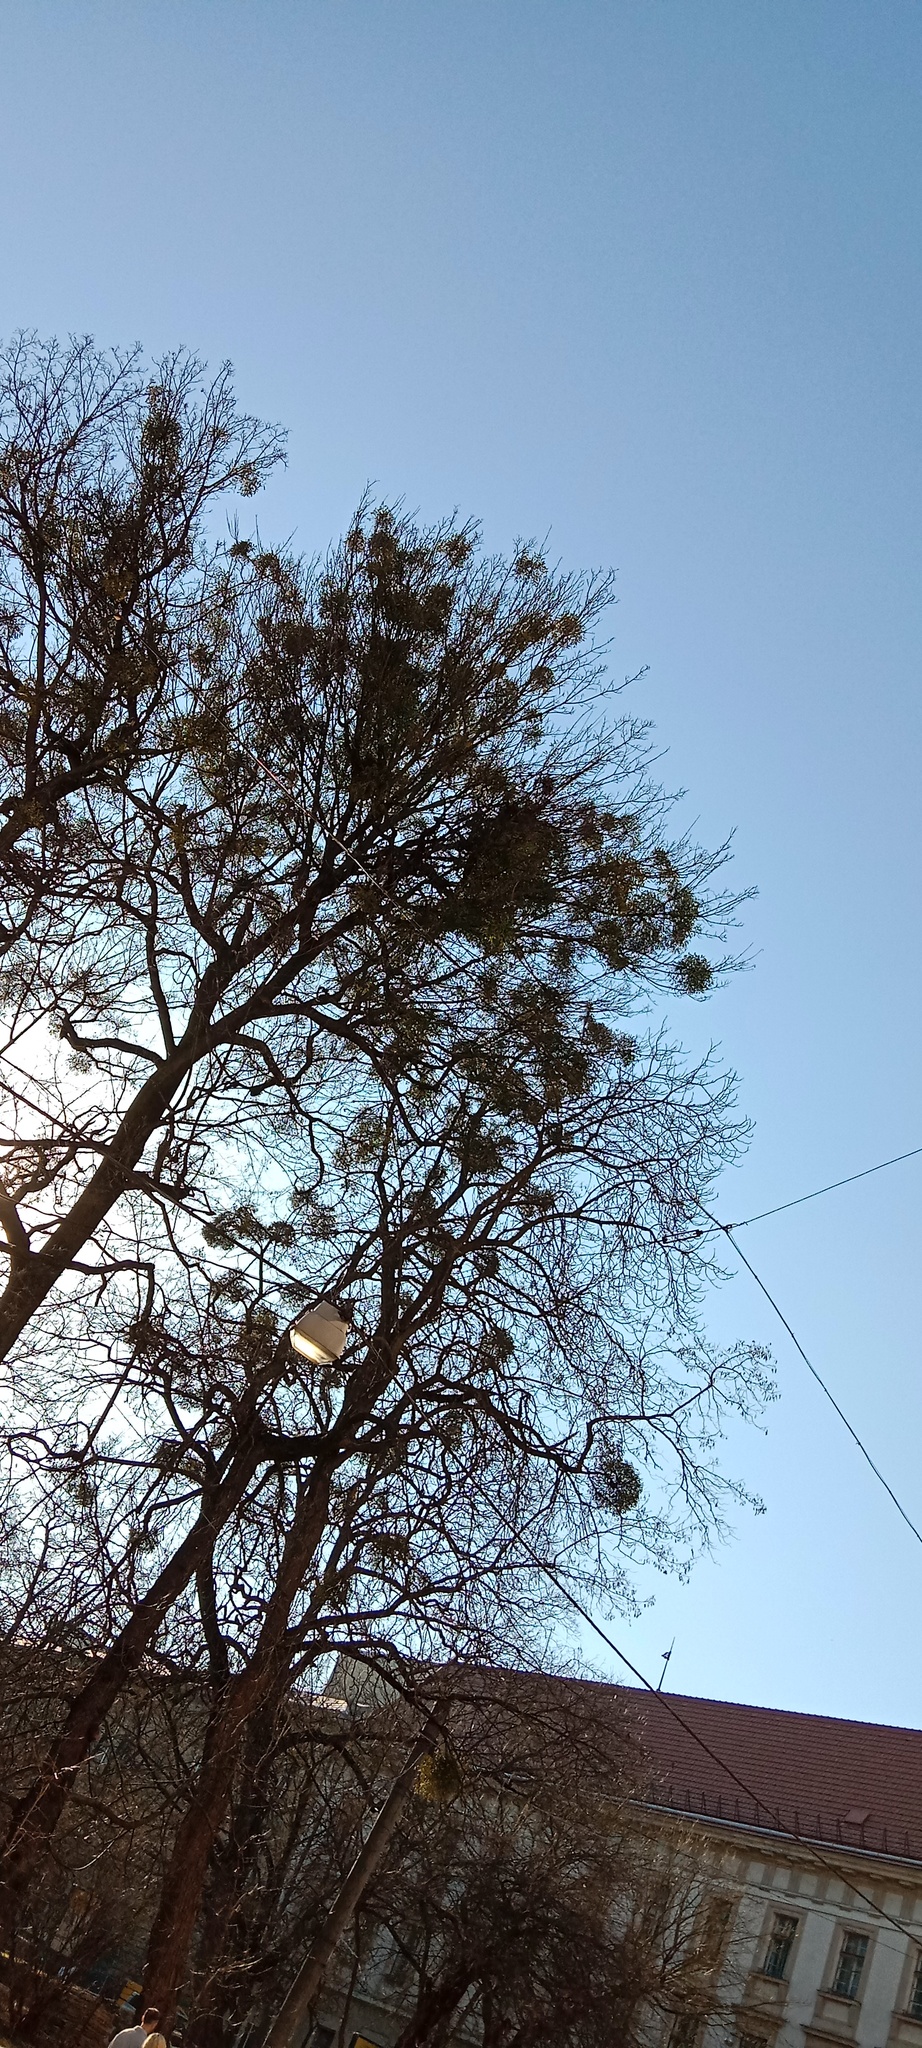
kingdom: Plantae
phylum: Tracheophyta
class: Magnoliopsida
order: Santalales
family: Viscaceae
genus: Viscum
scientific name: Viscum album
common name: Mistletoe
